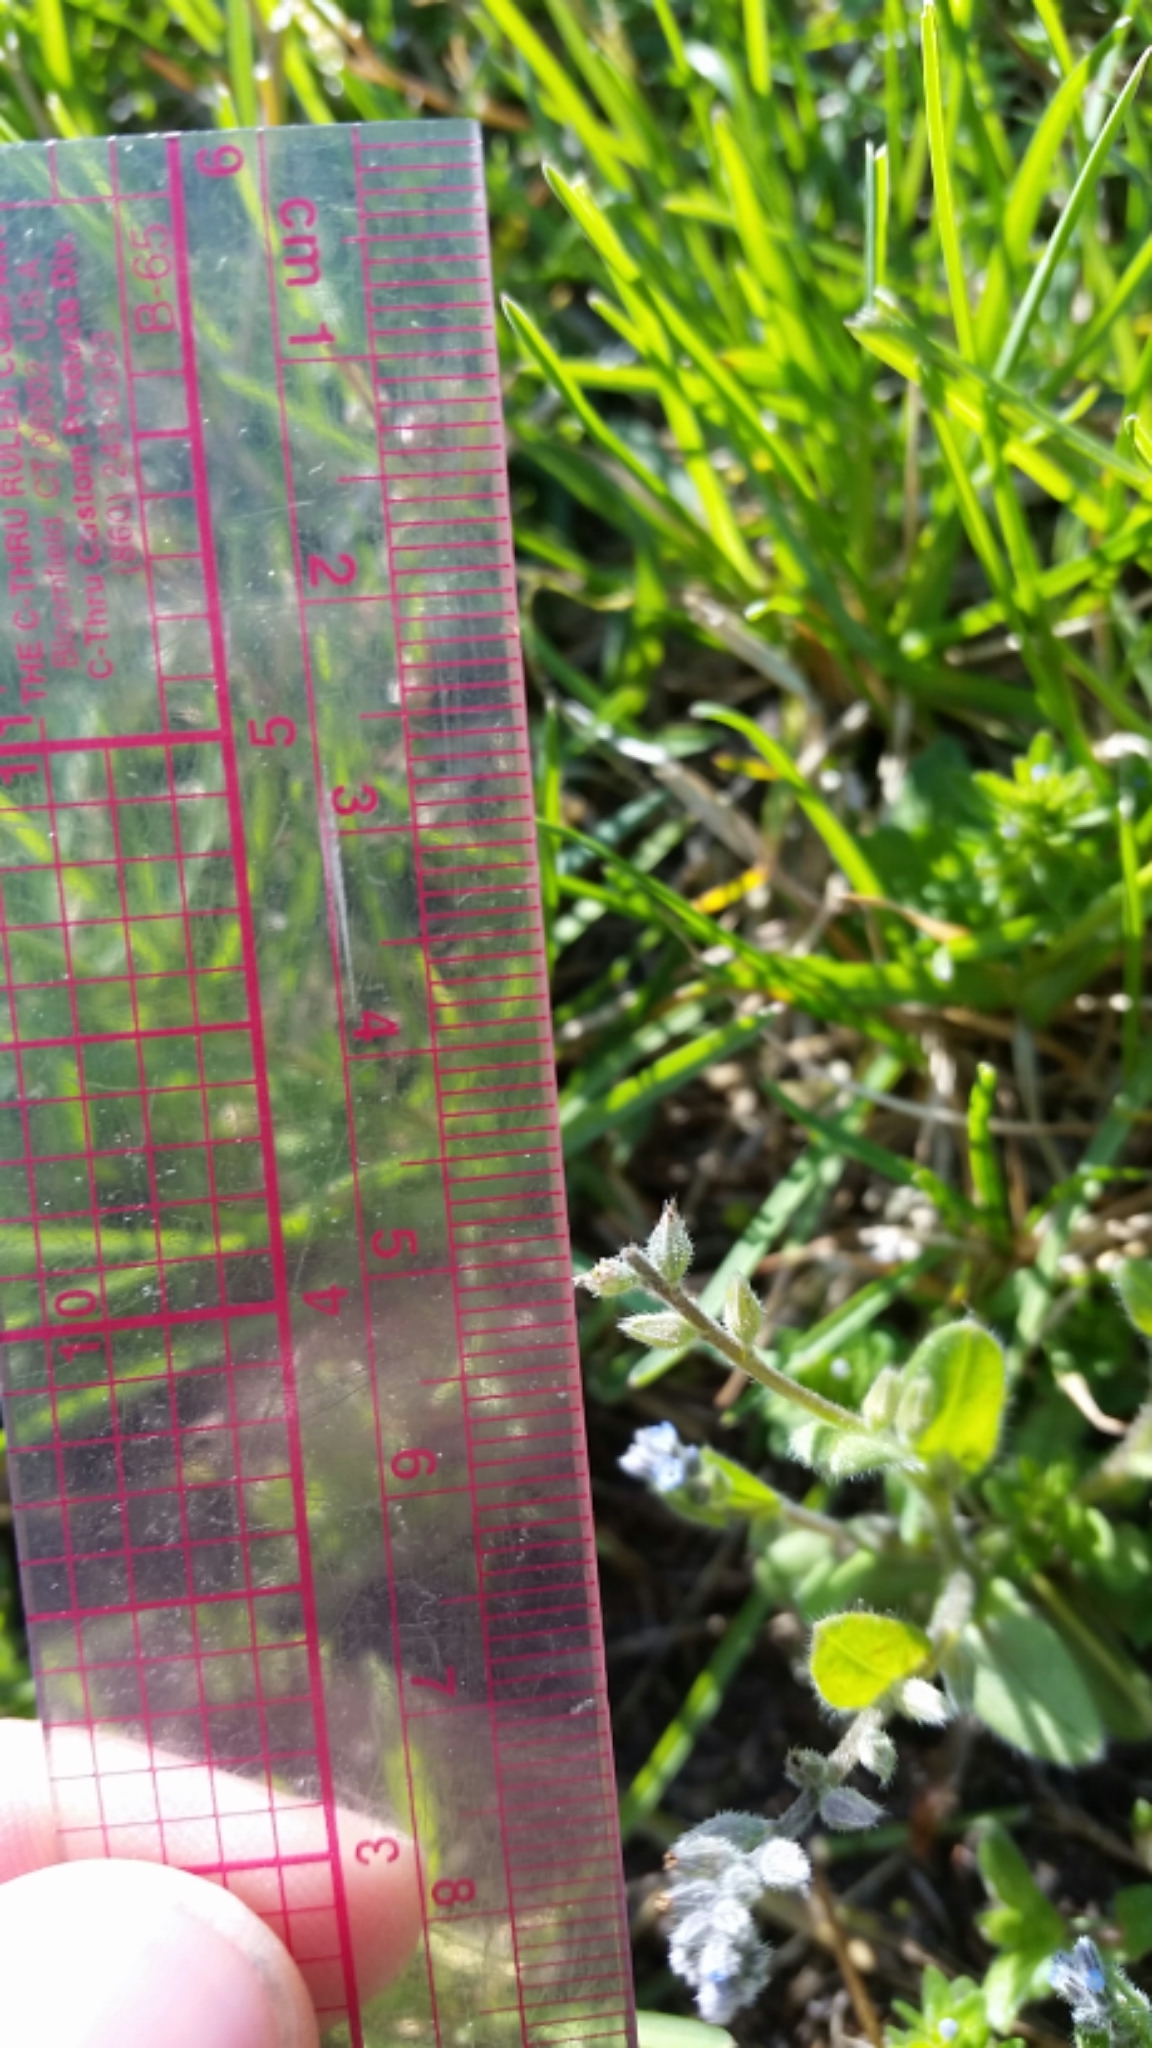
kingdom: Plantae
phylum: Tracheophyta
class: Magnoliopsida
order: Boraginales
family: Boraginaceae
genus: Myosotis
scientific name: Myosotis stricta
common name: Strict forget-me-not
